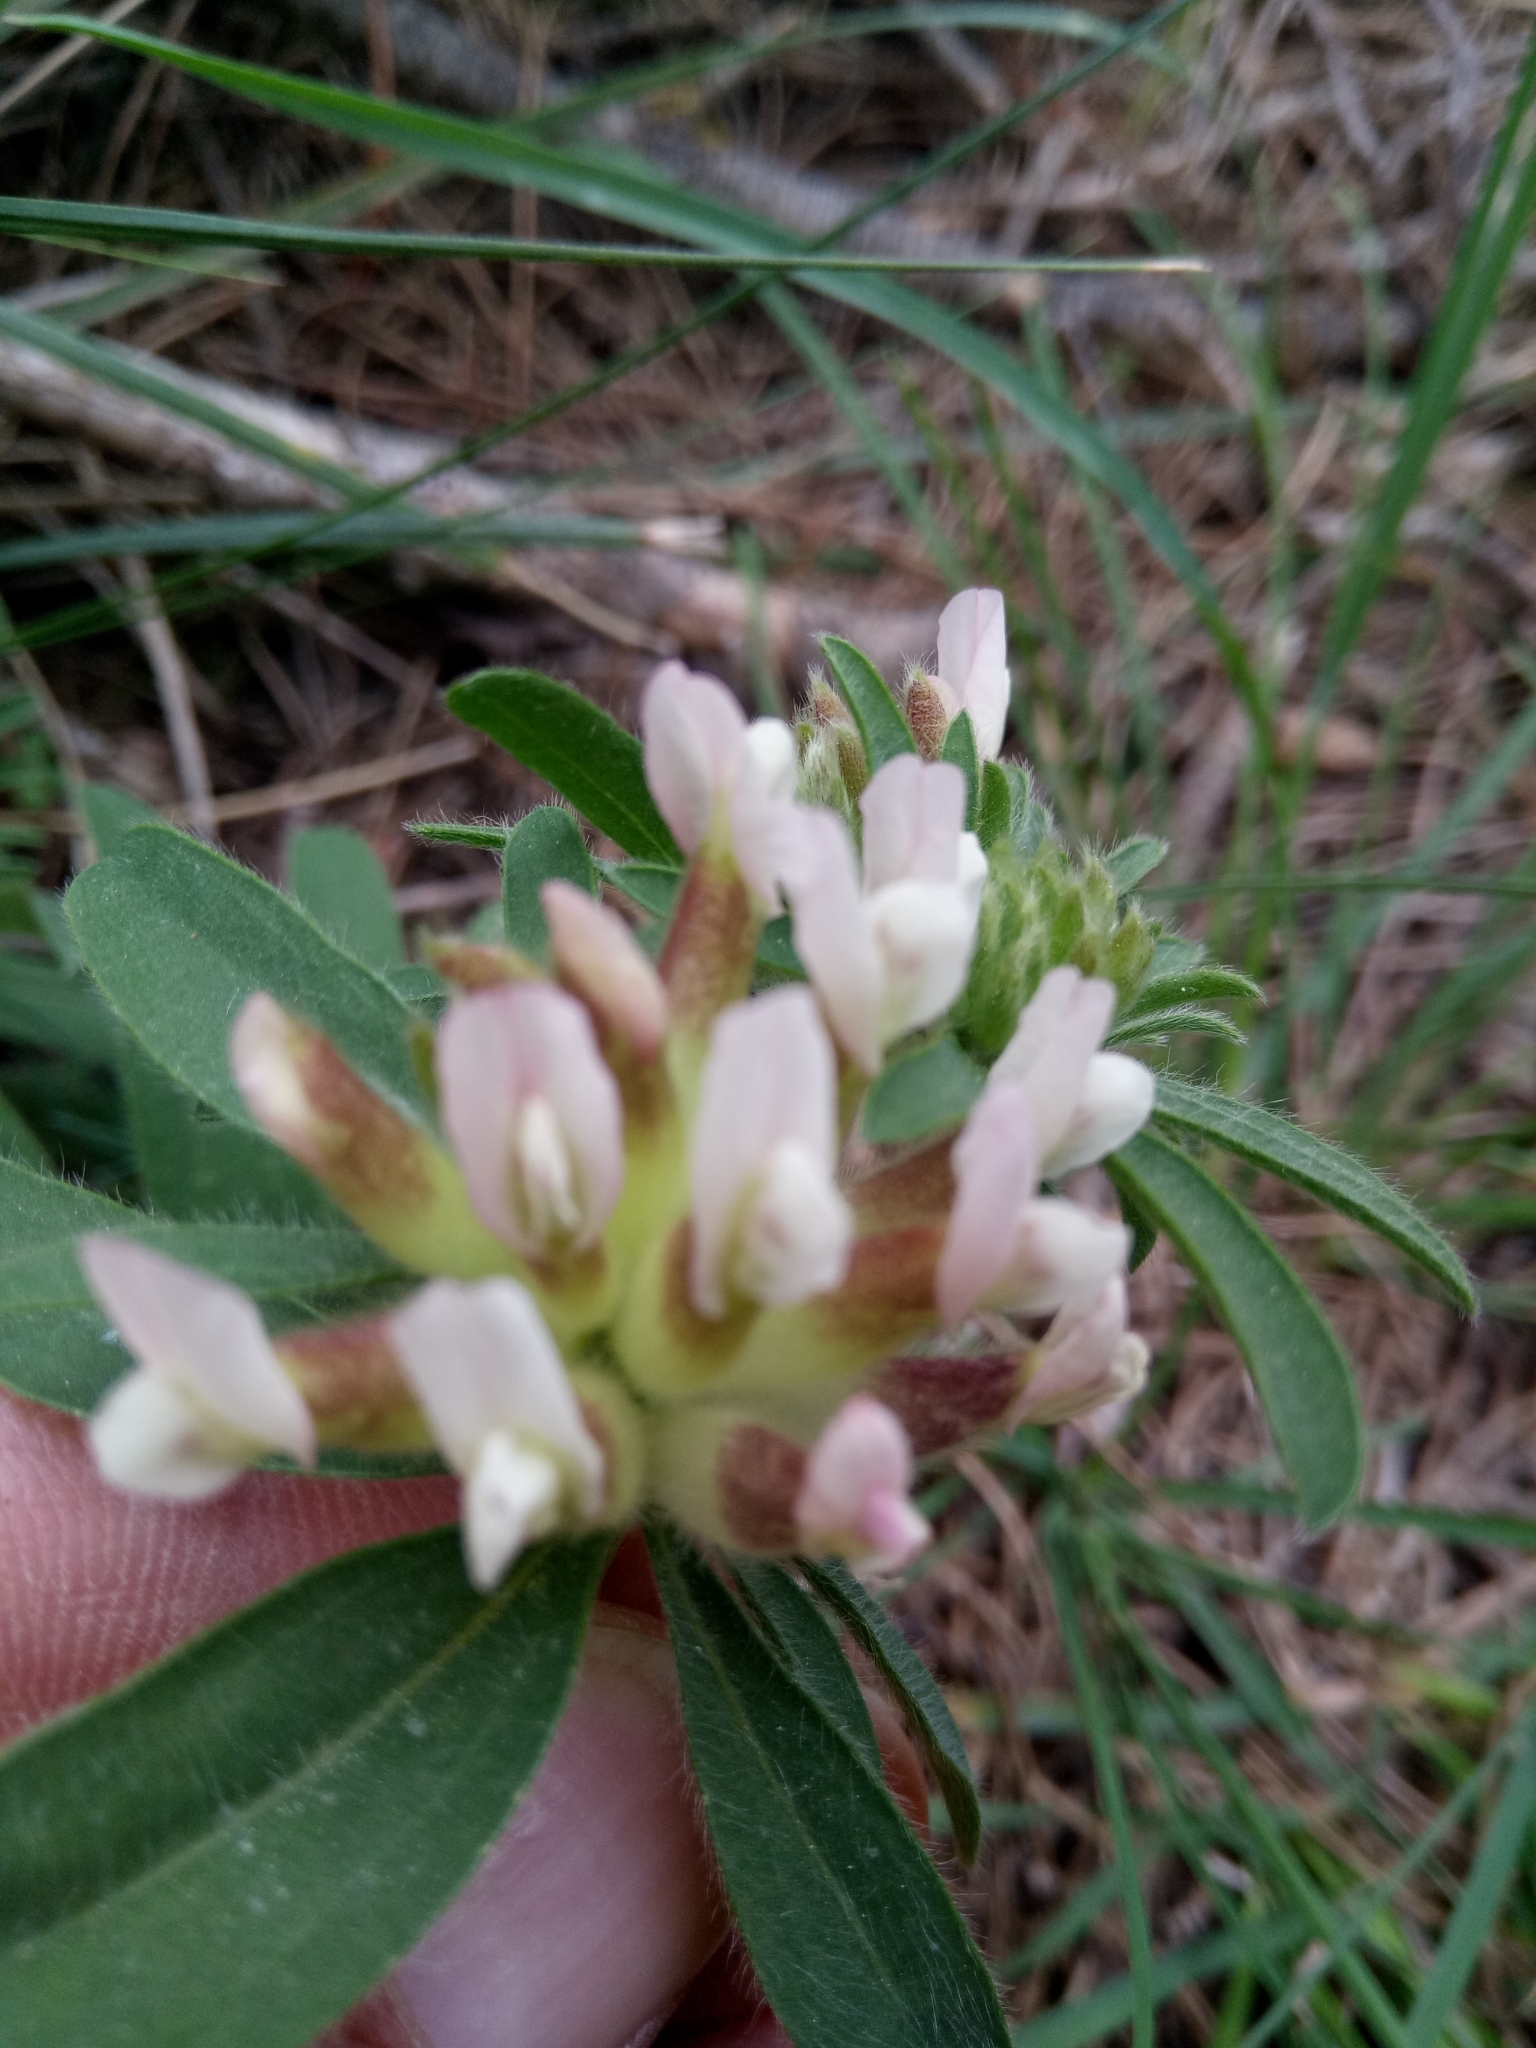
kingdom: Plantae
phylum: Tracheophyta
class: Magnoliopsida
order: Fabales
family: Fabaceae
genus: Anthyllis
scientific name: Anthyllis vulneraria
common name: Kidney vetch
